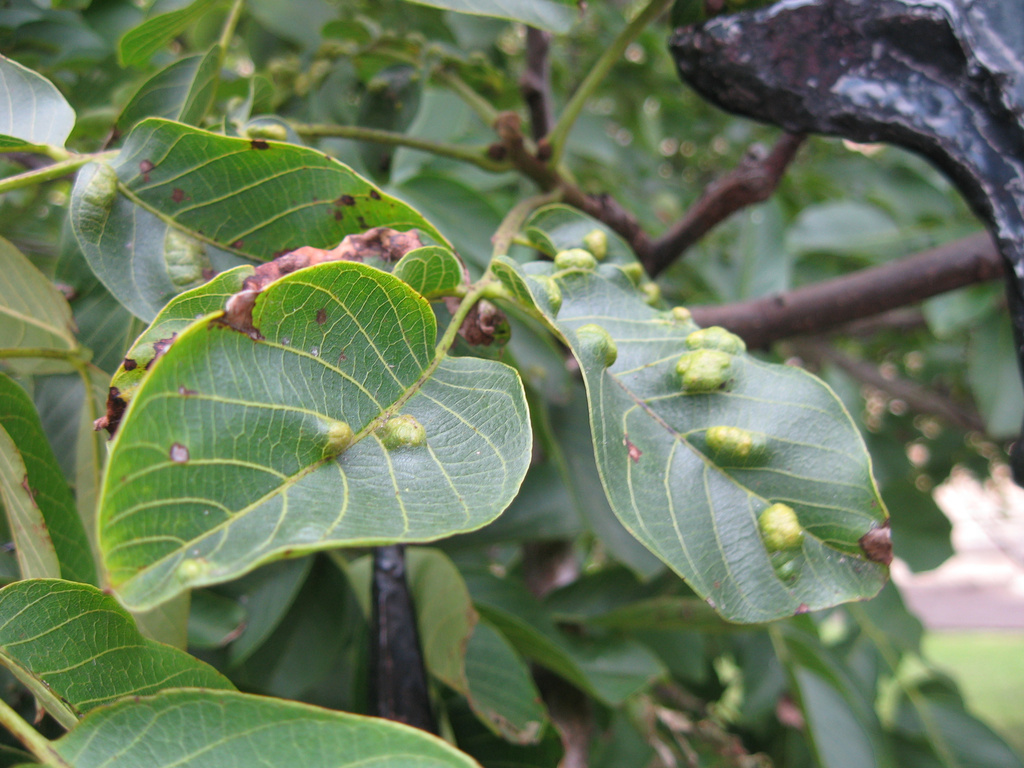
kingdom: Animalia
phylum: Arthropoda
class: Arachnida
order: Trombidiformes
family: Eriophyidae
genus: Aceria
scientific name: Aceria erinea
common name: Persian walnut erineum mite
